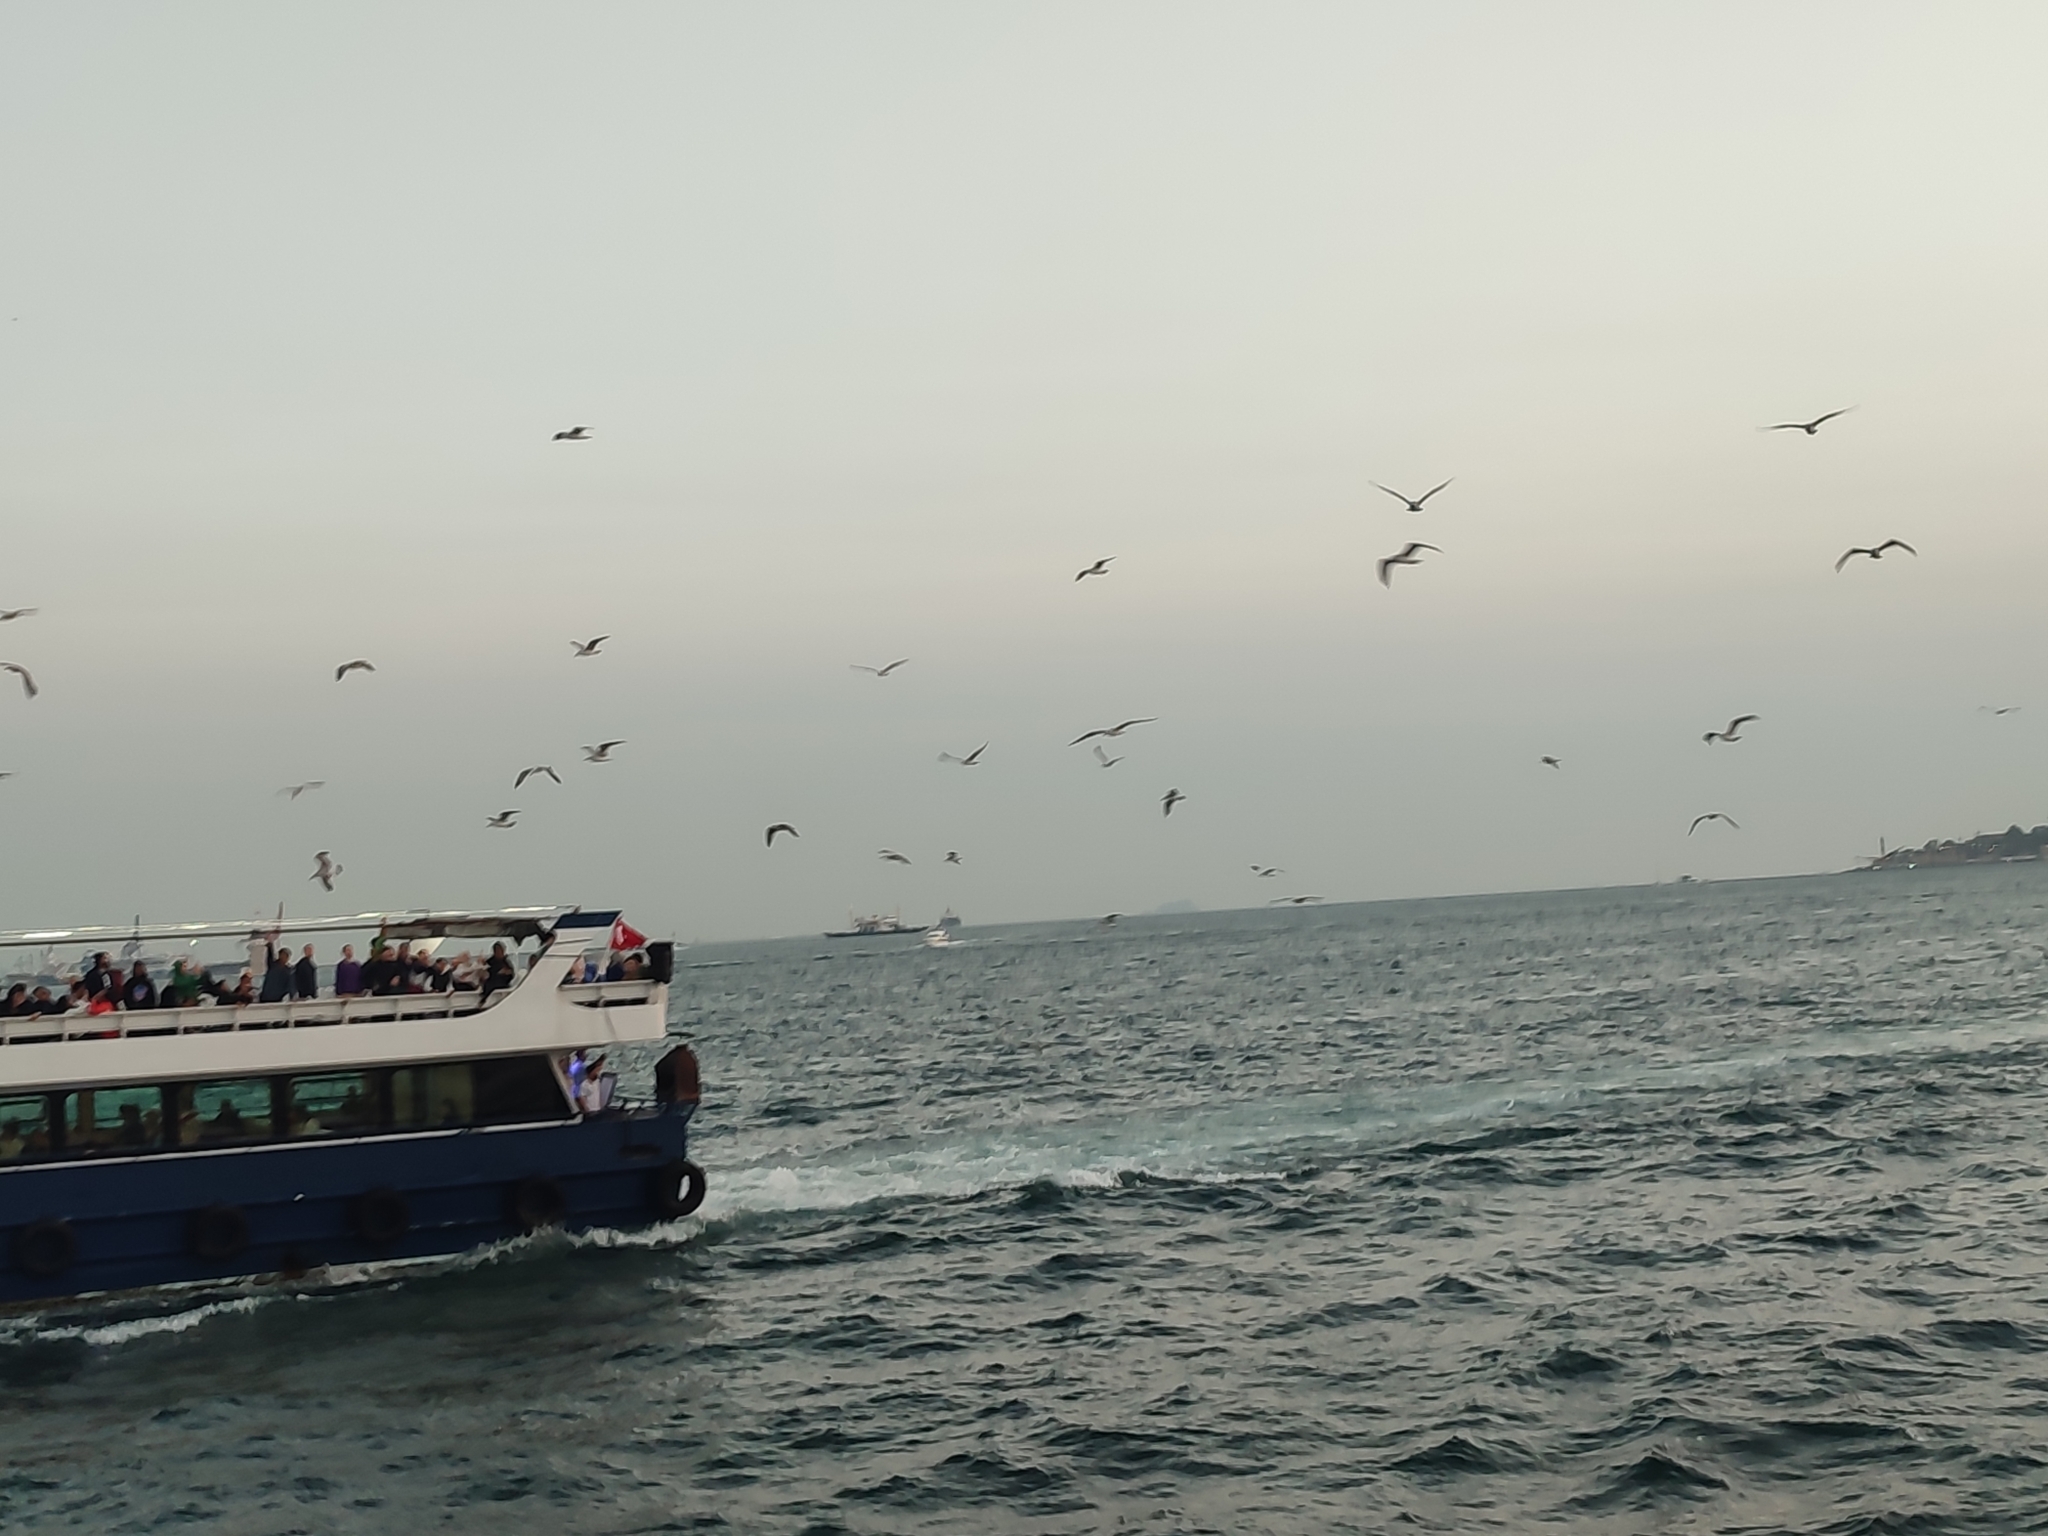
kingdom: Animalia
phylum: Chordata
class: Aves
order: Charadriiformes
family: Laridae
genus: Larus
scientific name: Larus
